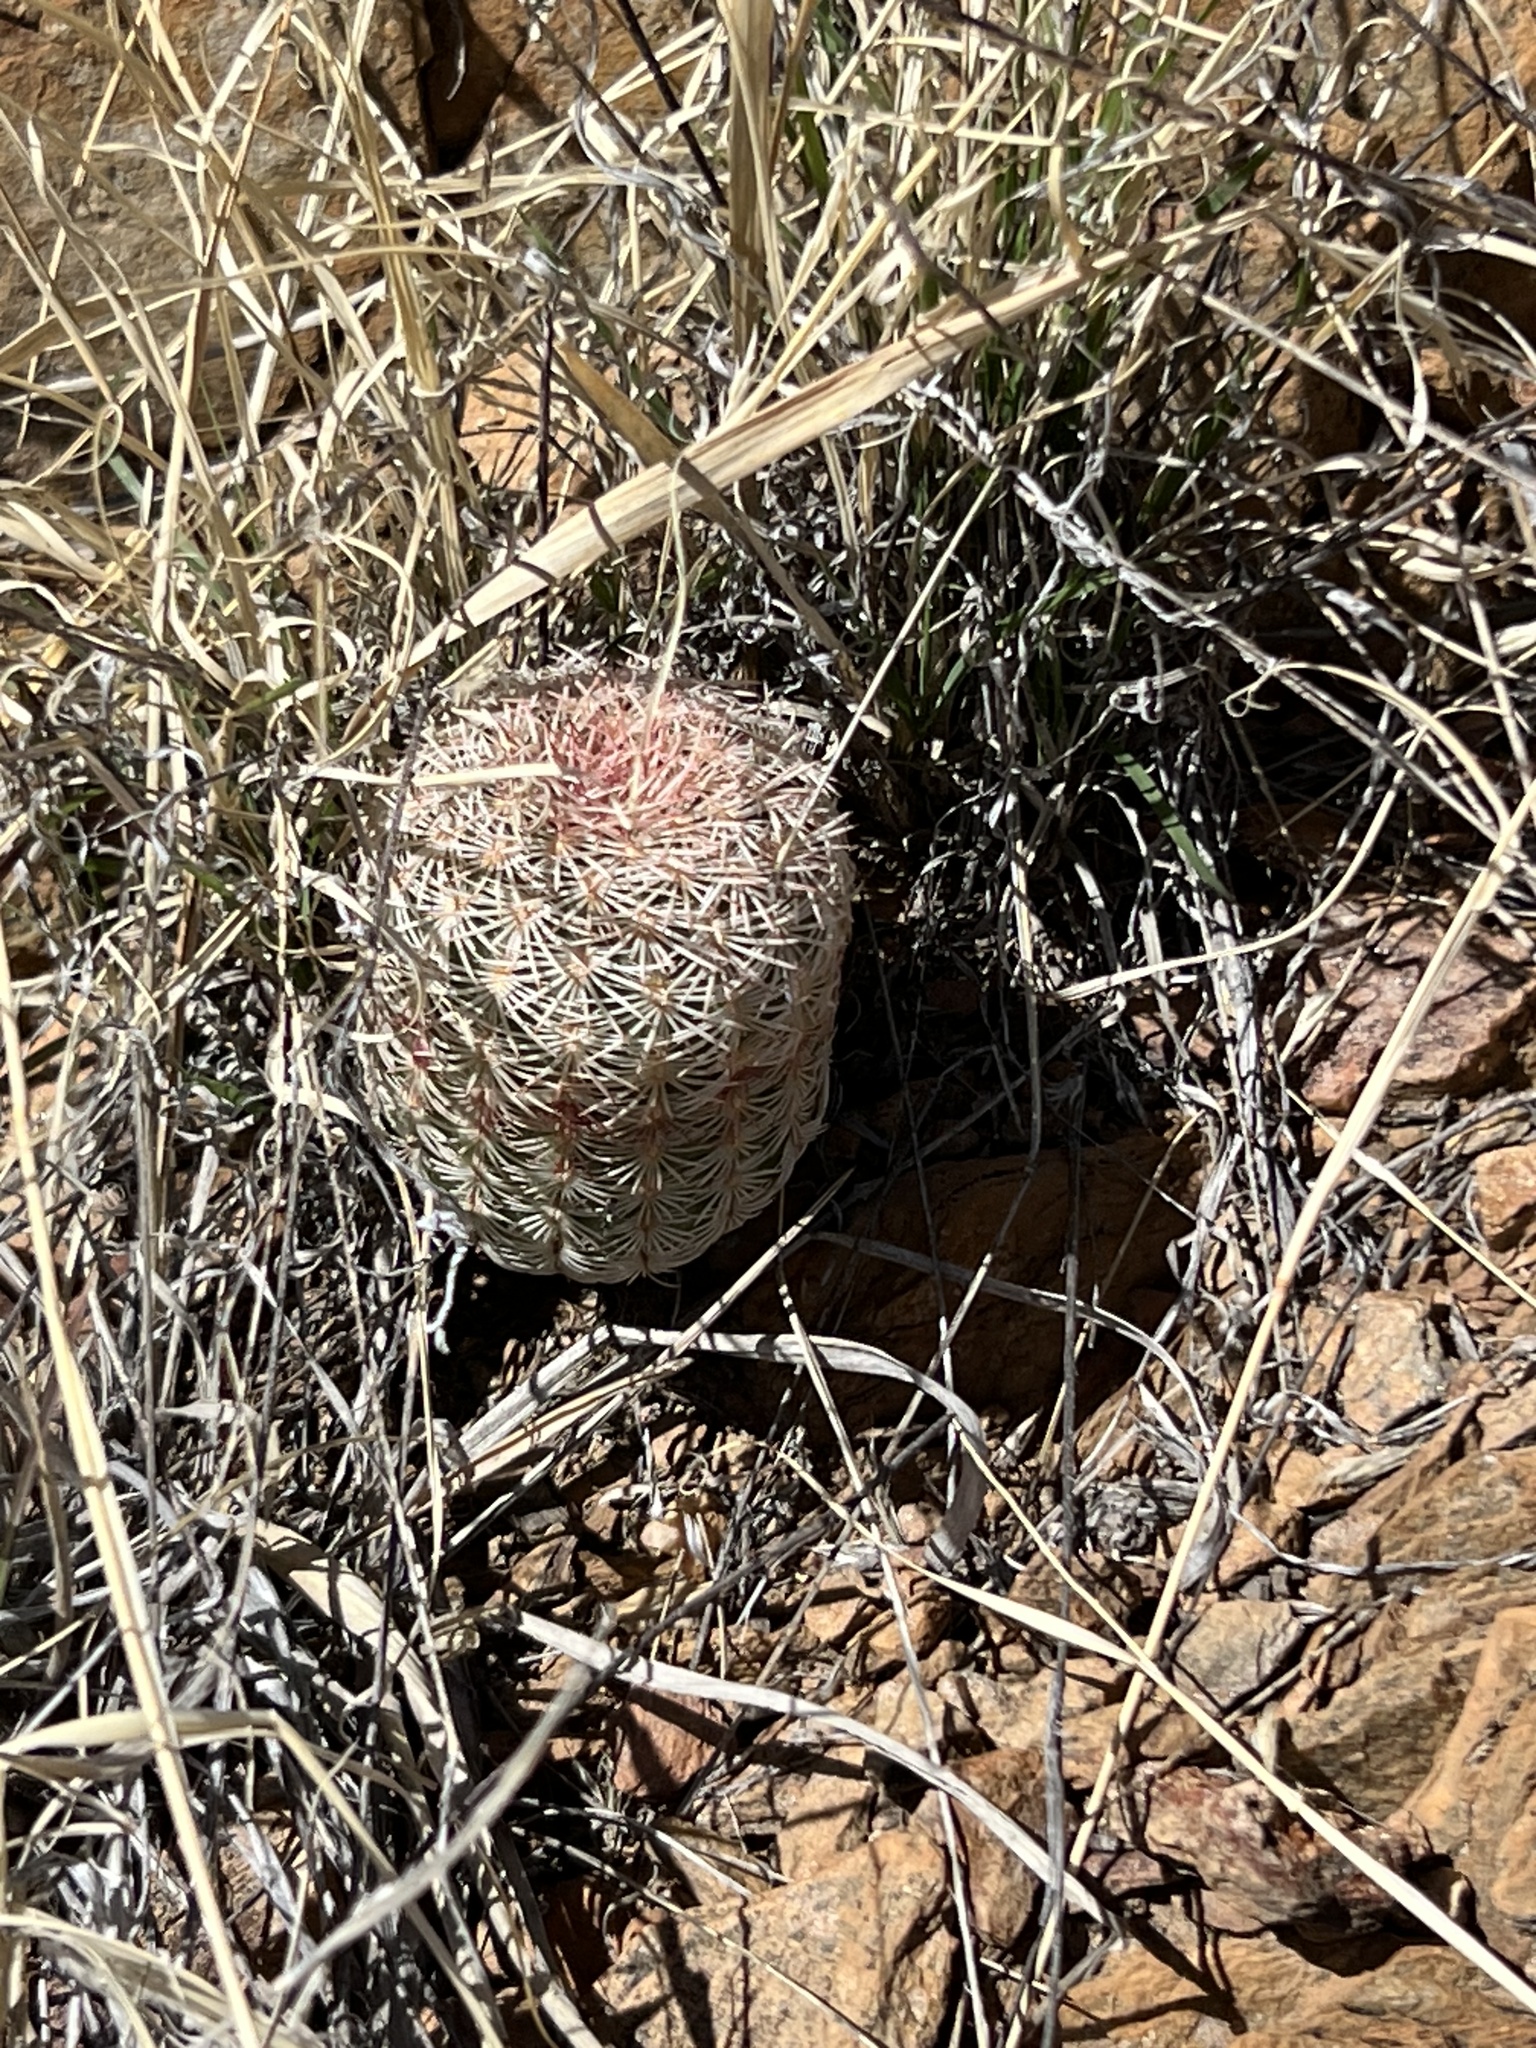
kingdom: Plantae
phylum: Tracheophyta
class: Magnoliopsida
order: Caryophyllales
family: Cactaceae
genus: Echinocereus
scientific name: Echinocereus rigidissimus
